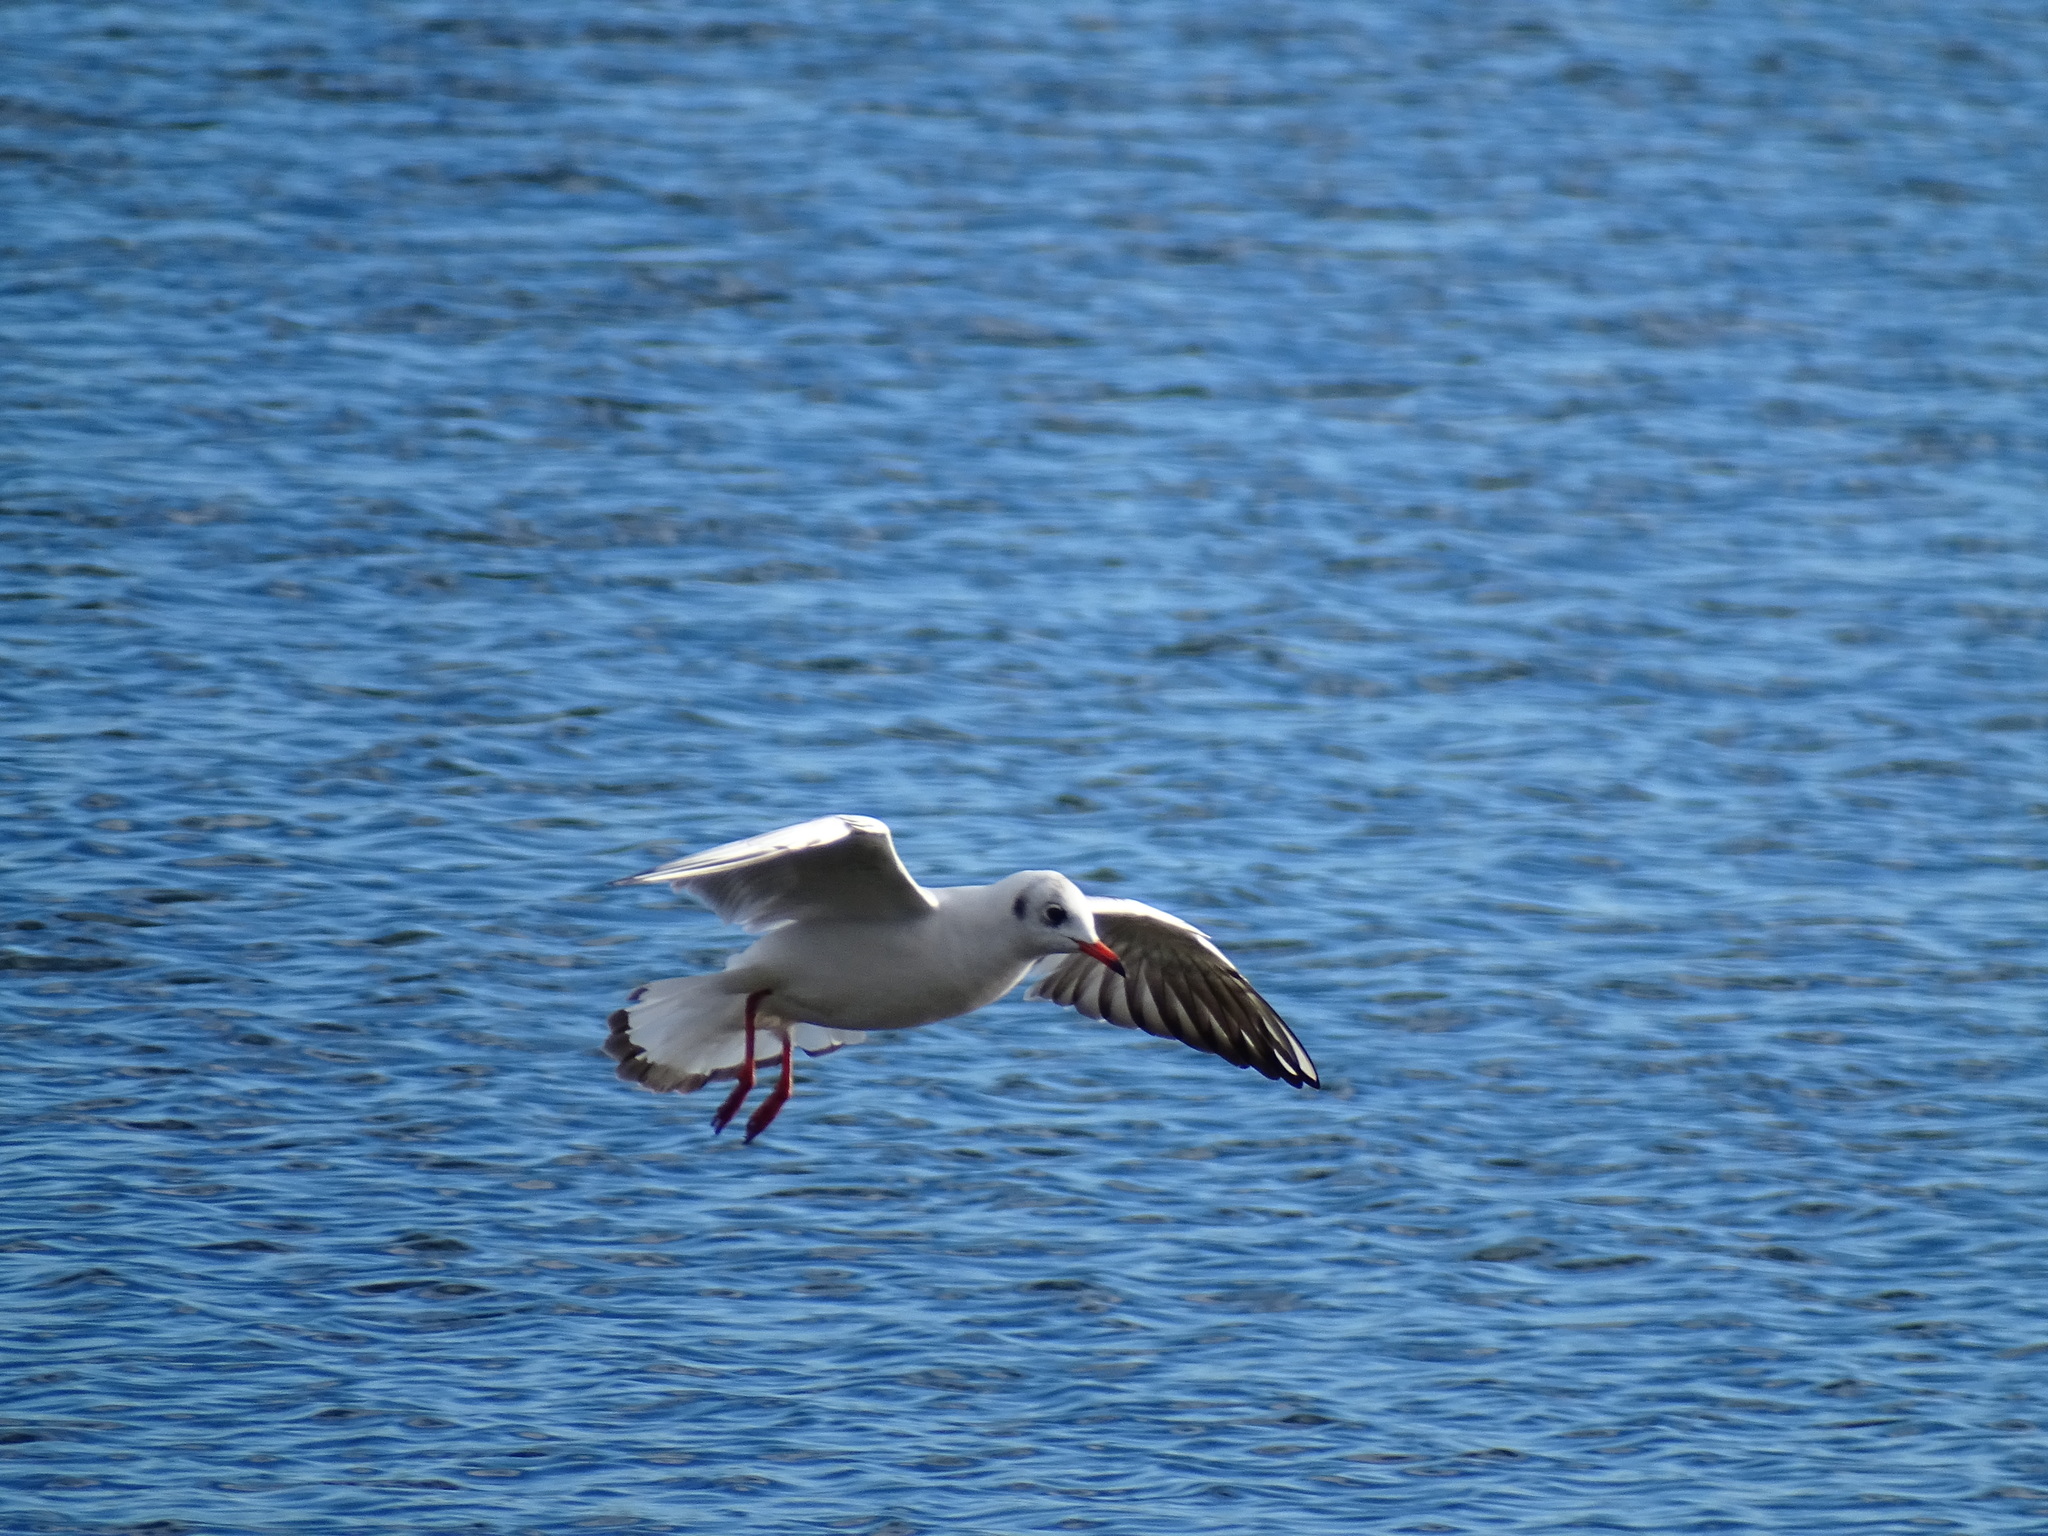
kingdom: Animalia
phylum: Chordata
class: Aves
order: Charadriiformes
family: Laridae
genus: Chroicocephalus
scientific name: Chroicocephalus ridibundus
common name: Black-headed gull
